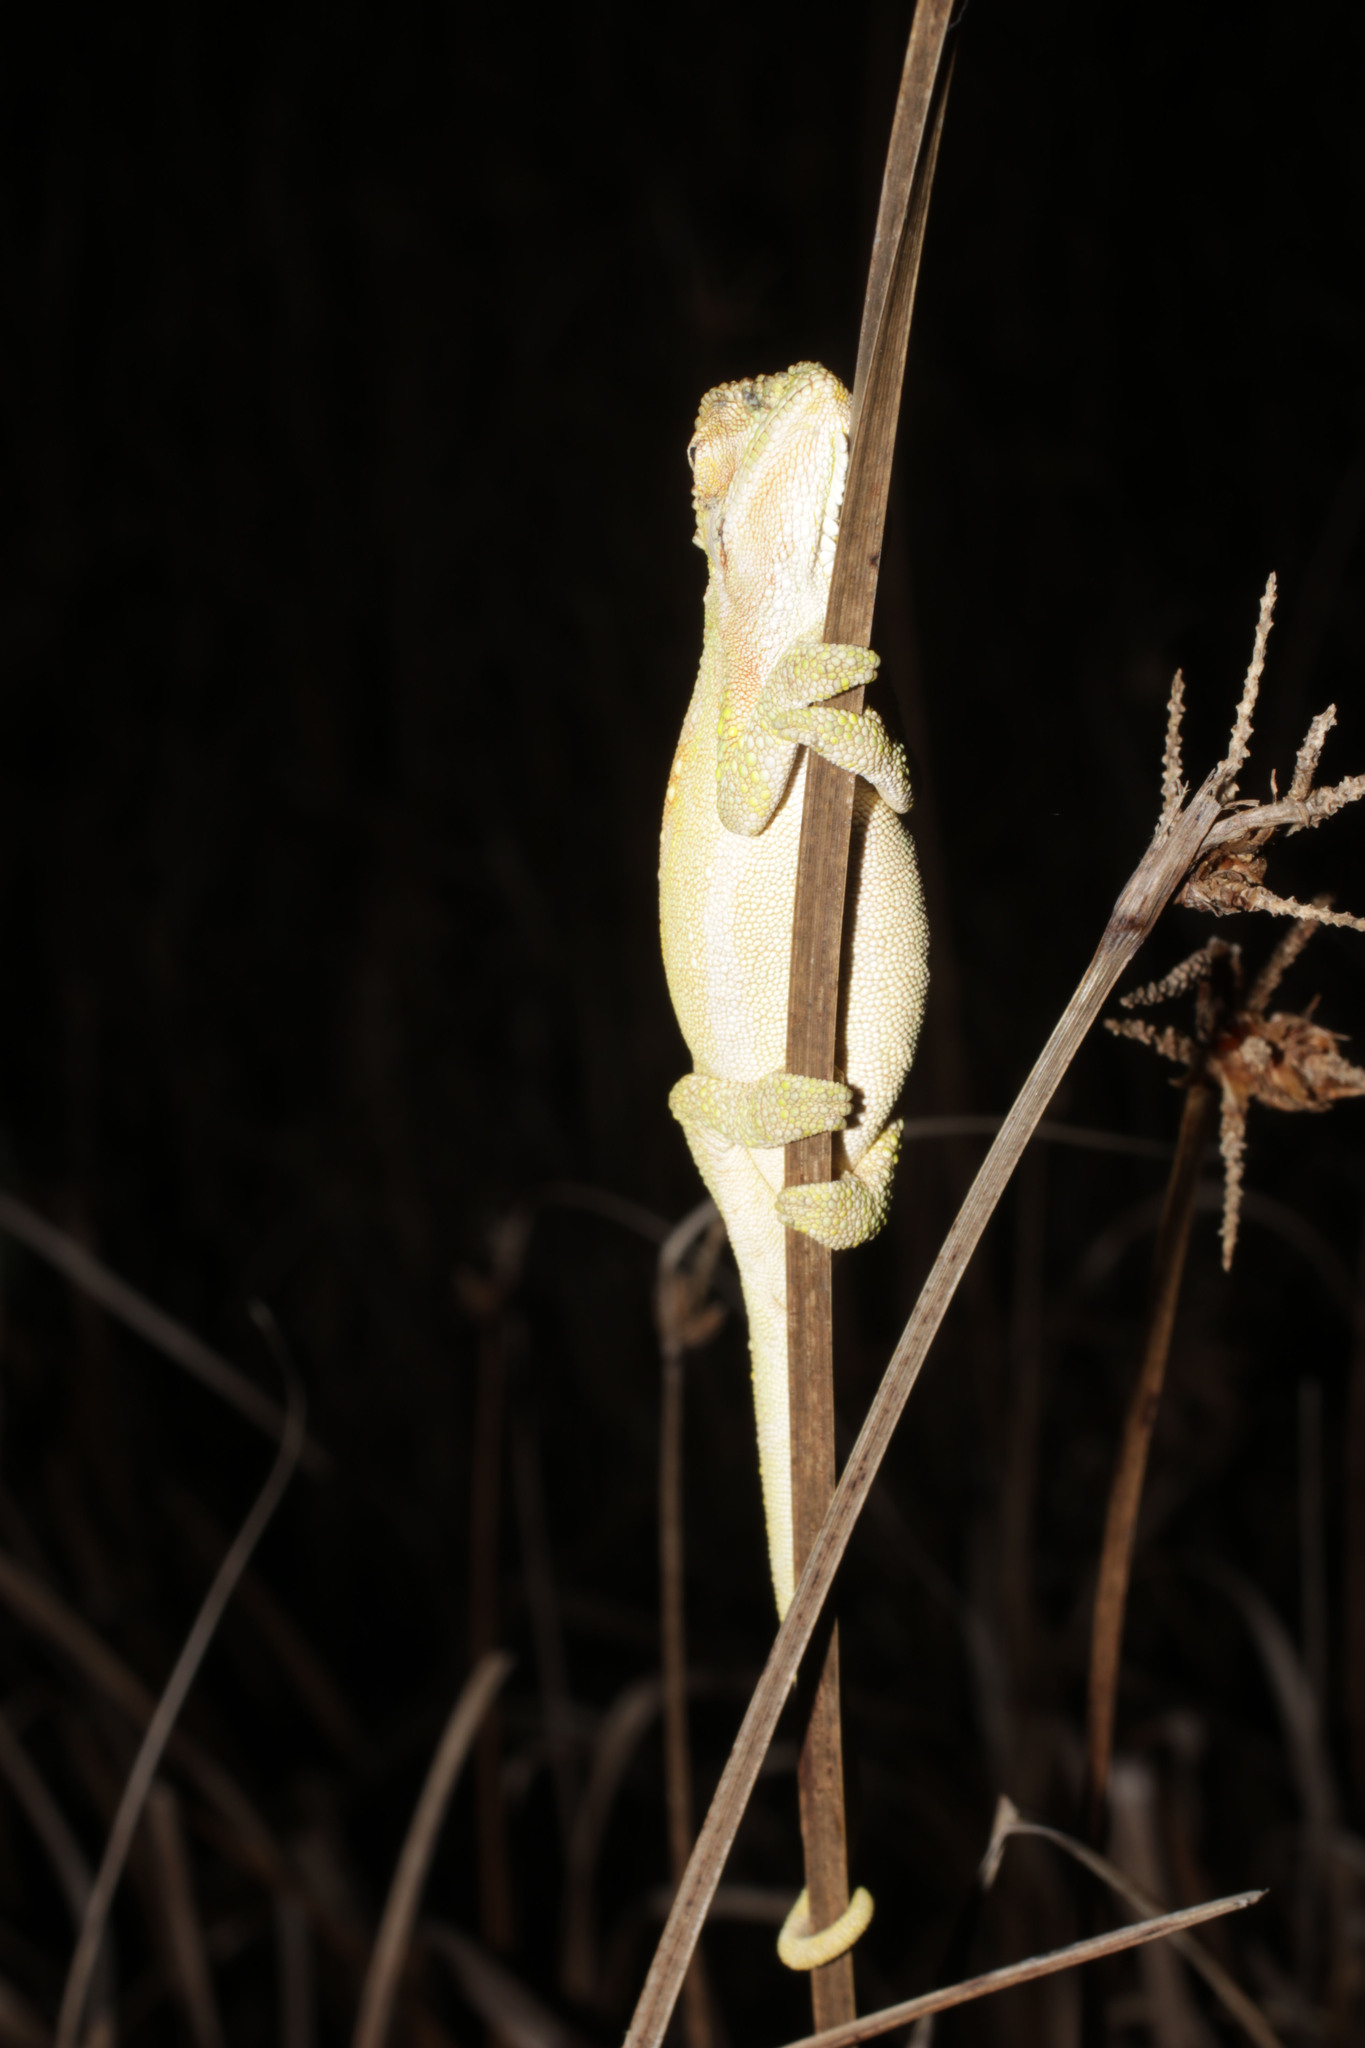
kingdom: Animalia
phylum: Chordata
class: Squamata
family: Chamaeleonidae
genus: Bradypodion
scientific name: Bradypodion pumilum
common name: Cape dwarf chameleon
